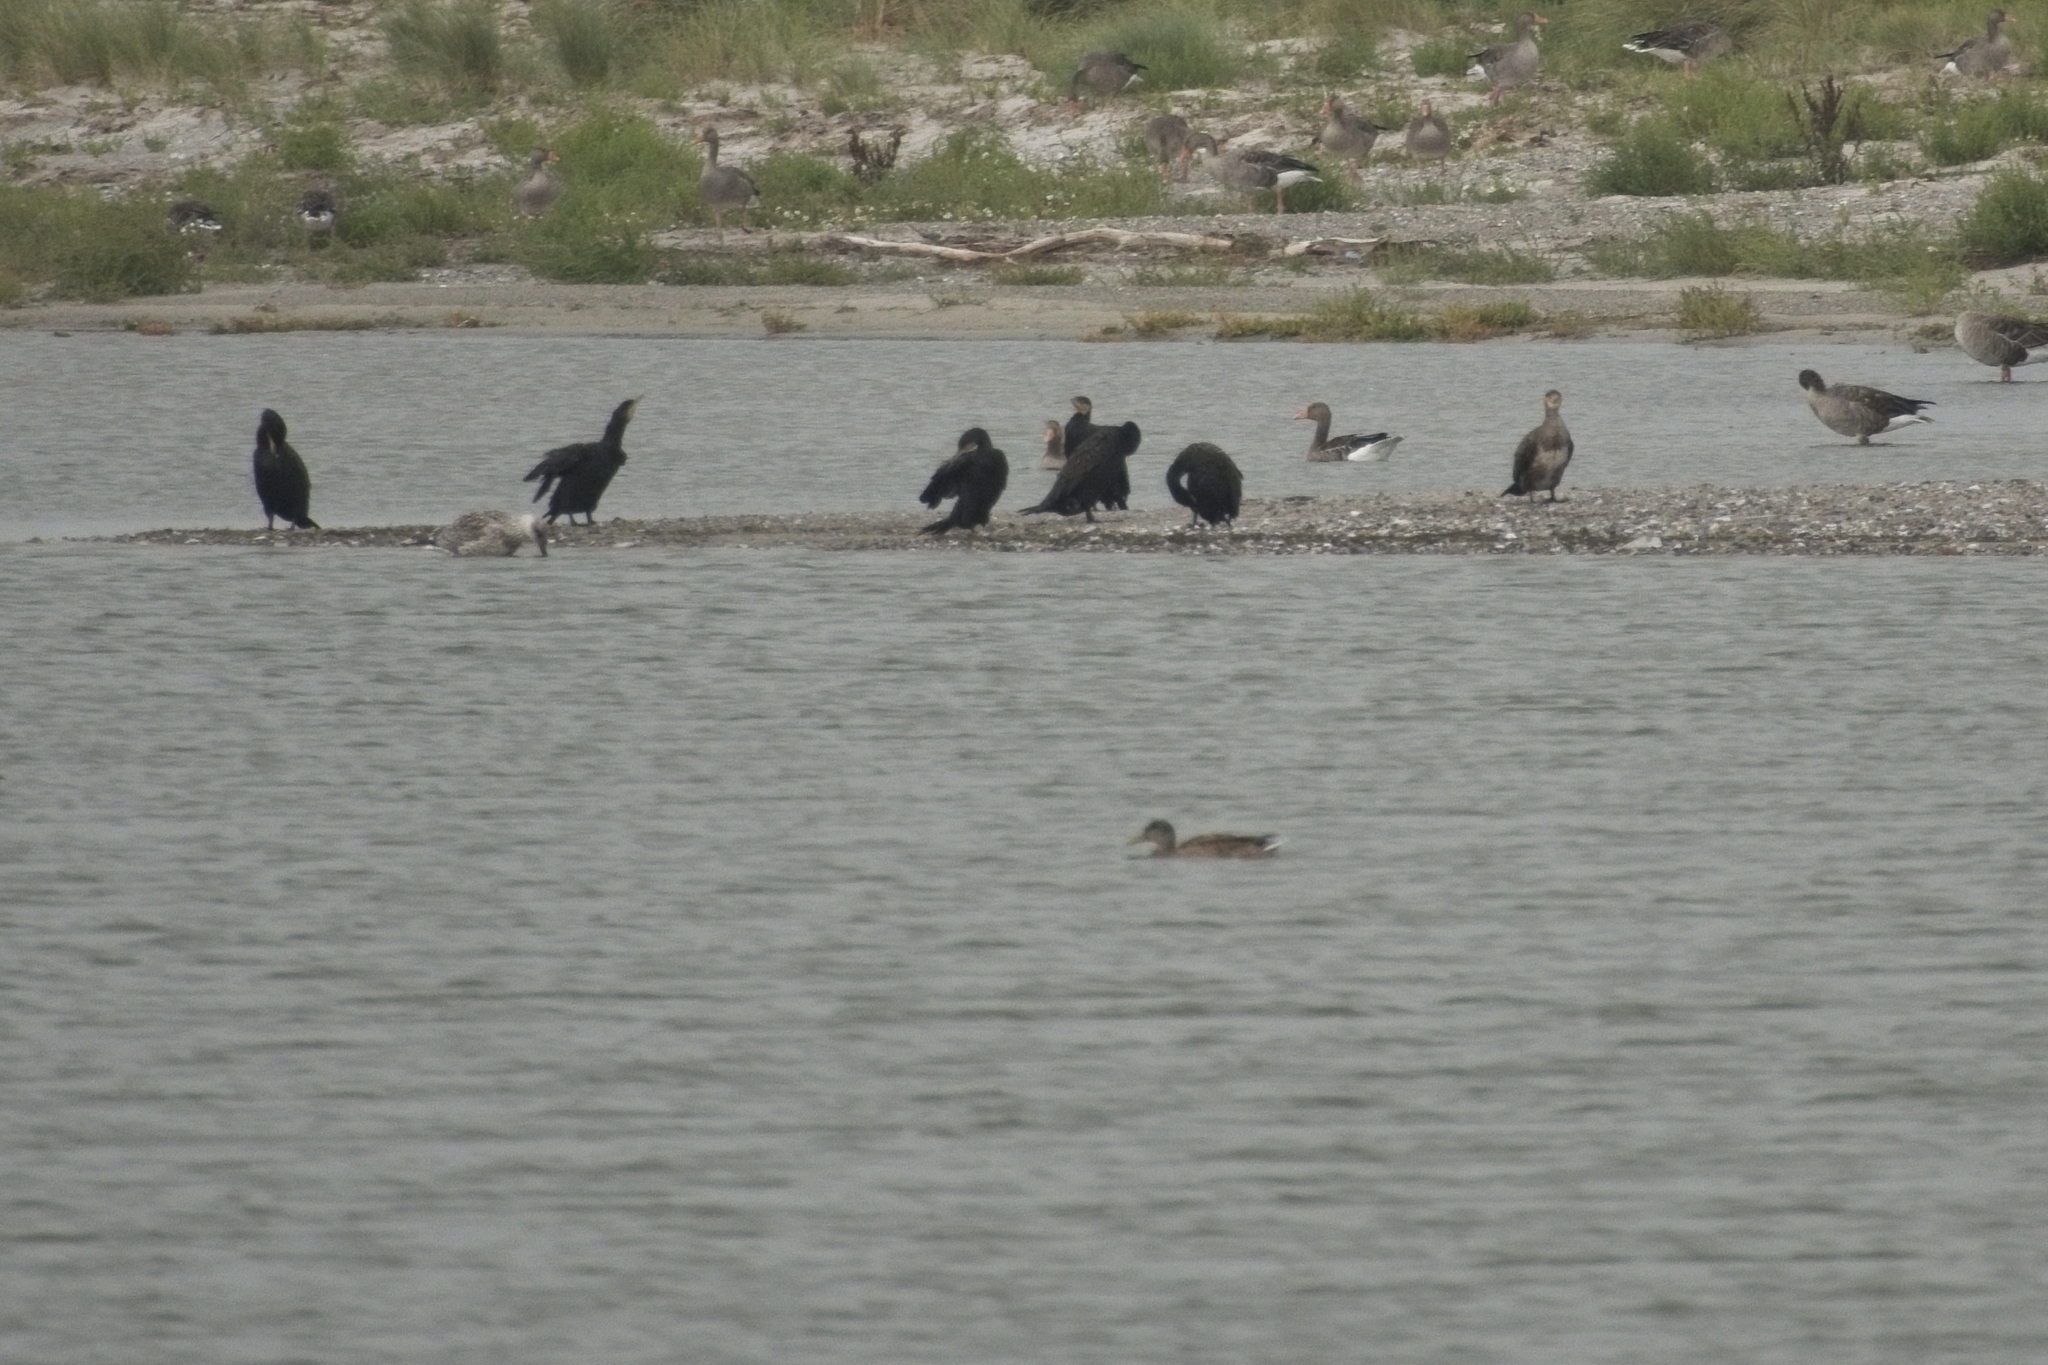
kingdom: Animalia
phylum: Chordata
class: Aves
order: Suliformes
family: Phalacrocoracidae
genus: Phalacrocorax
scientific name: Phalacrocorax carbo
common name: Great cormorant
